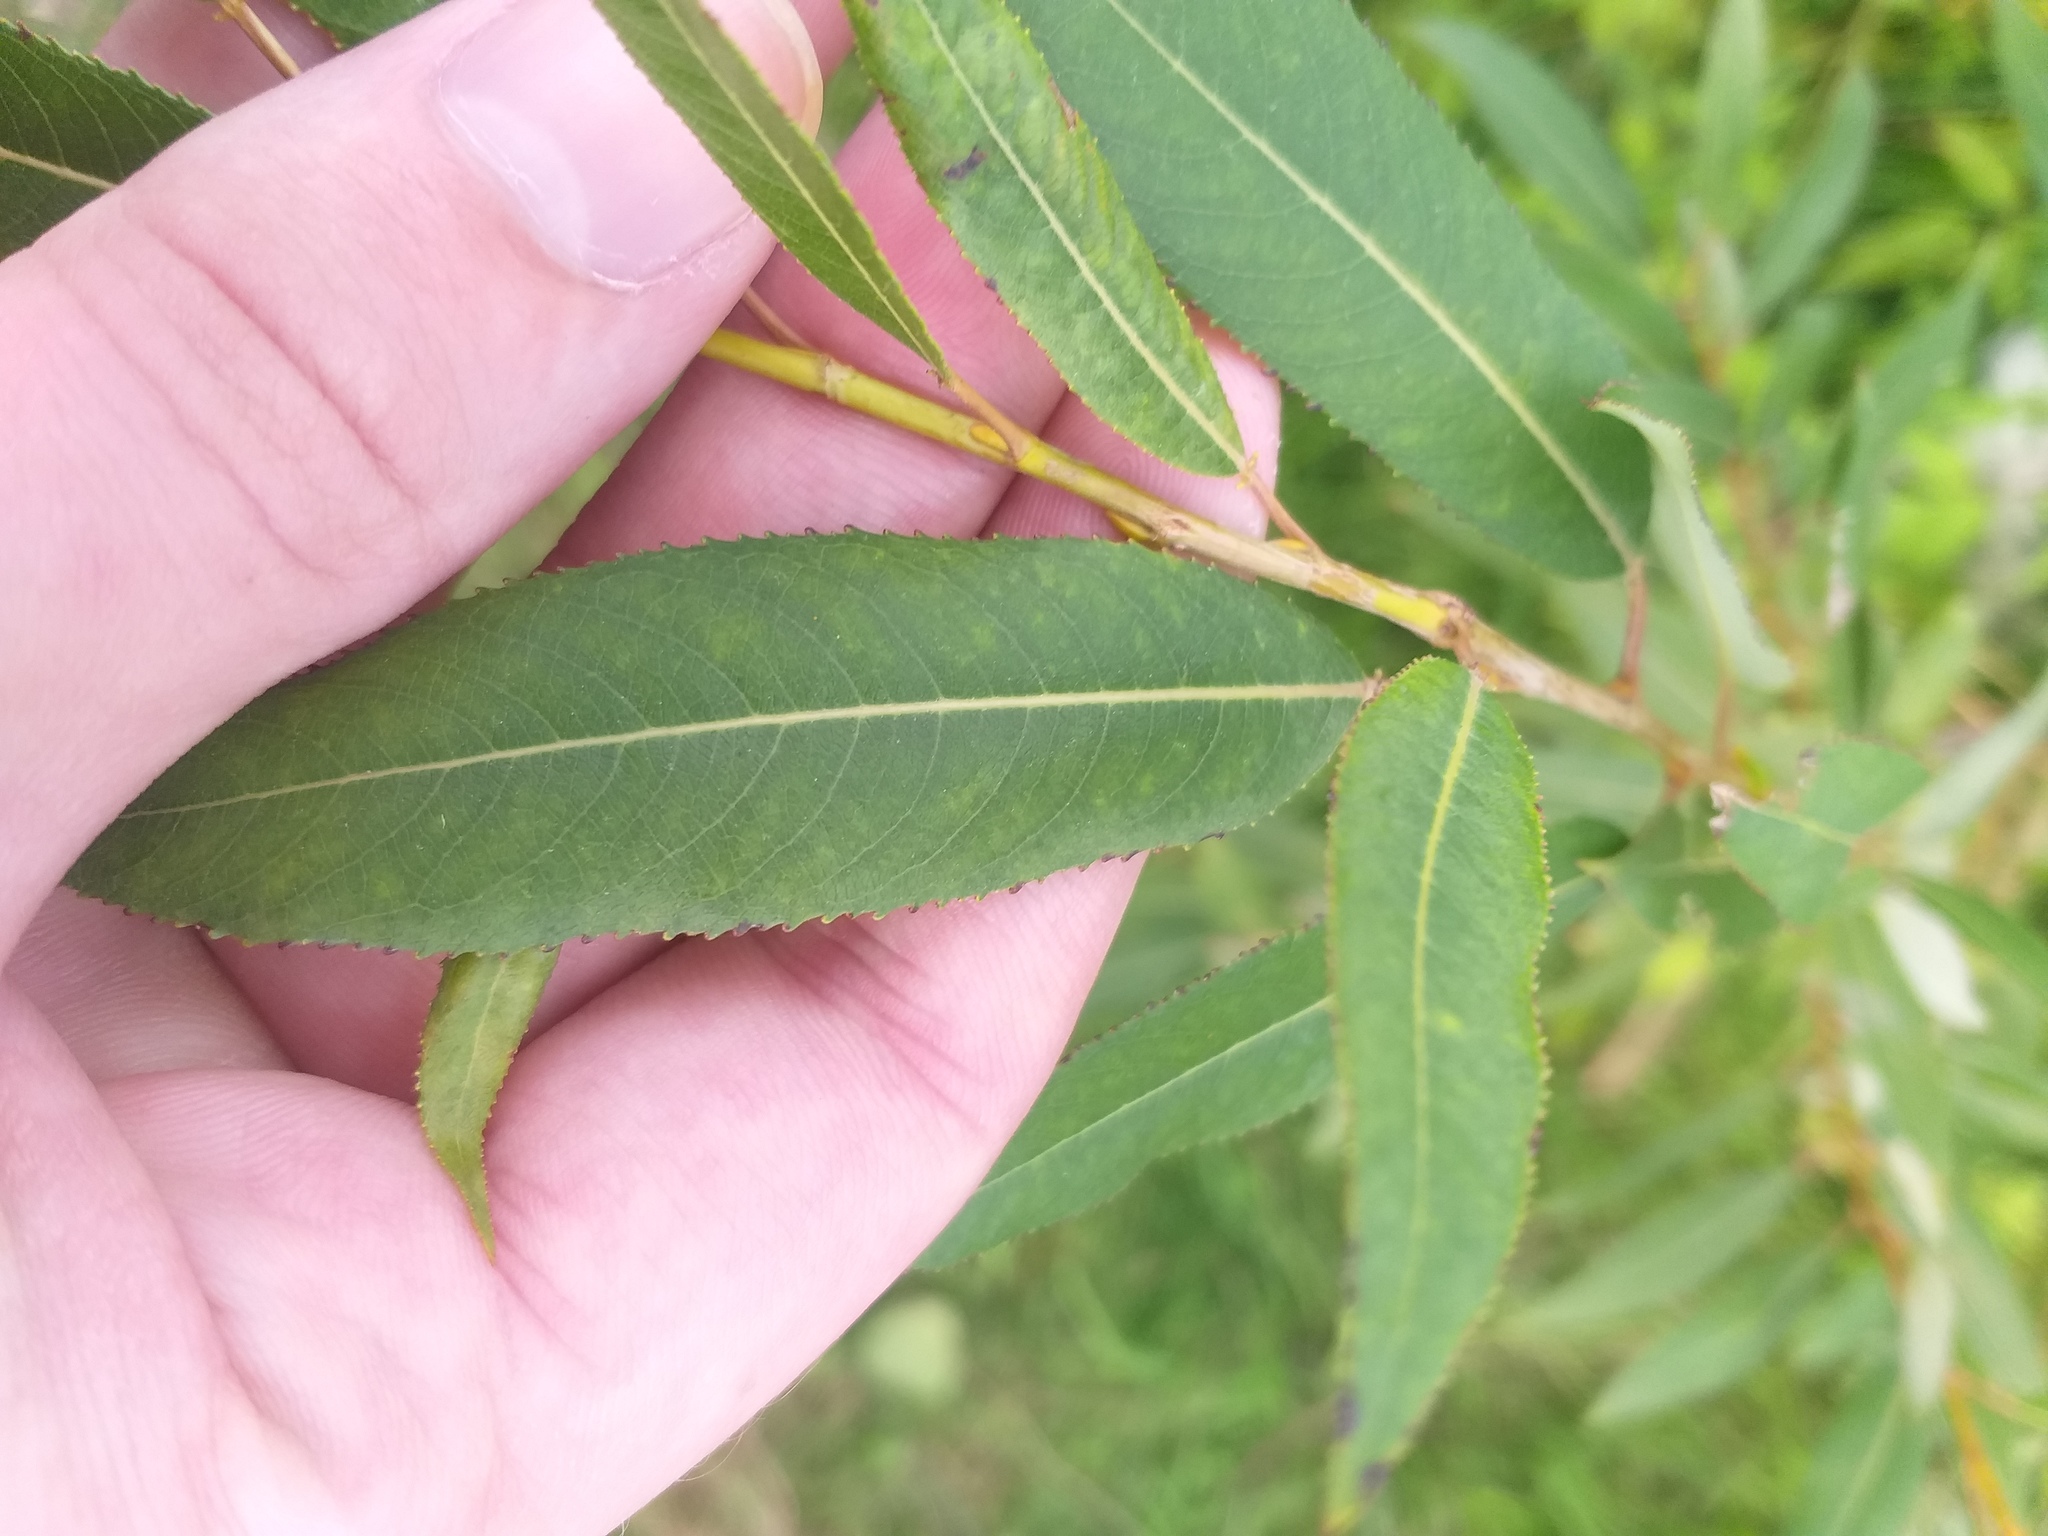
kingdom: Plantae
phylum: Tracheophyta
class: Magnoliopsida
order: Malpighiales
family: Salicaceae
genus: Salix
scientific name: Salix triandra
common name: Almond willow
